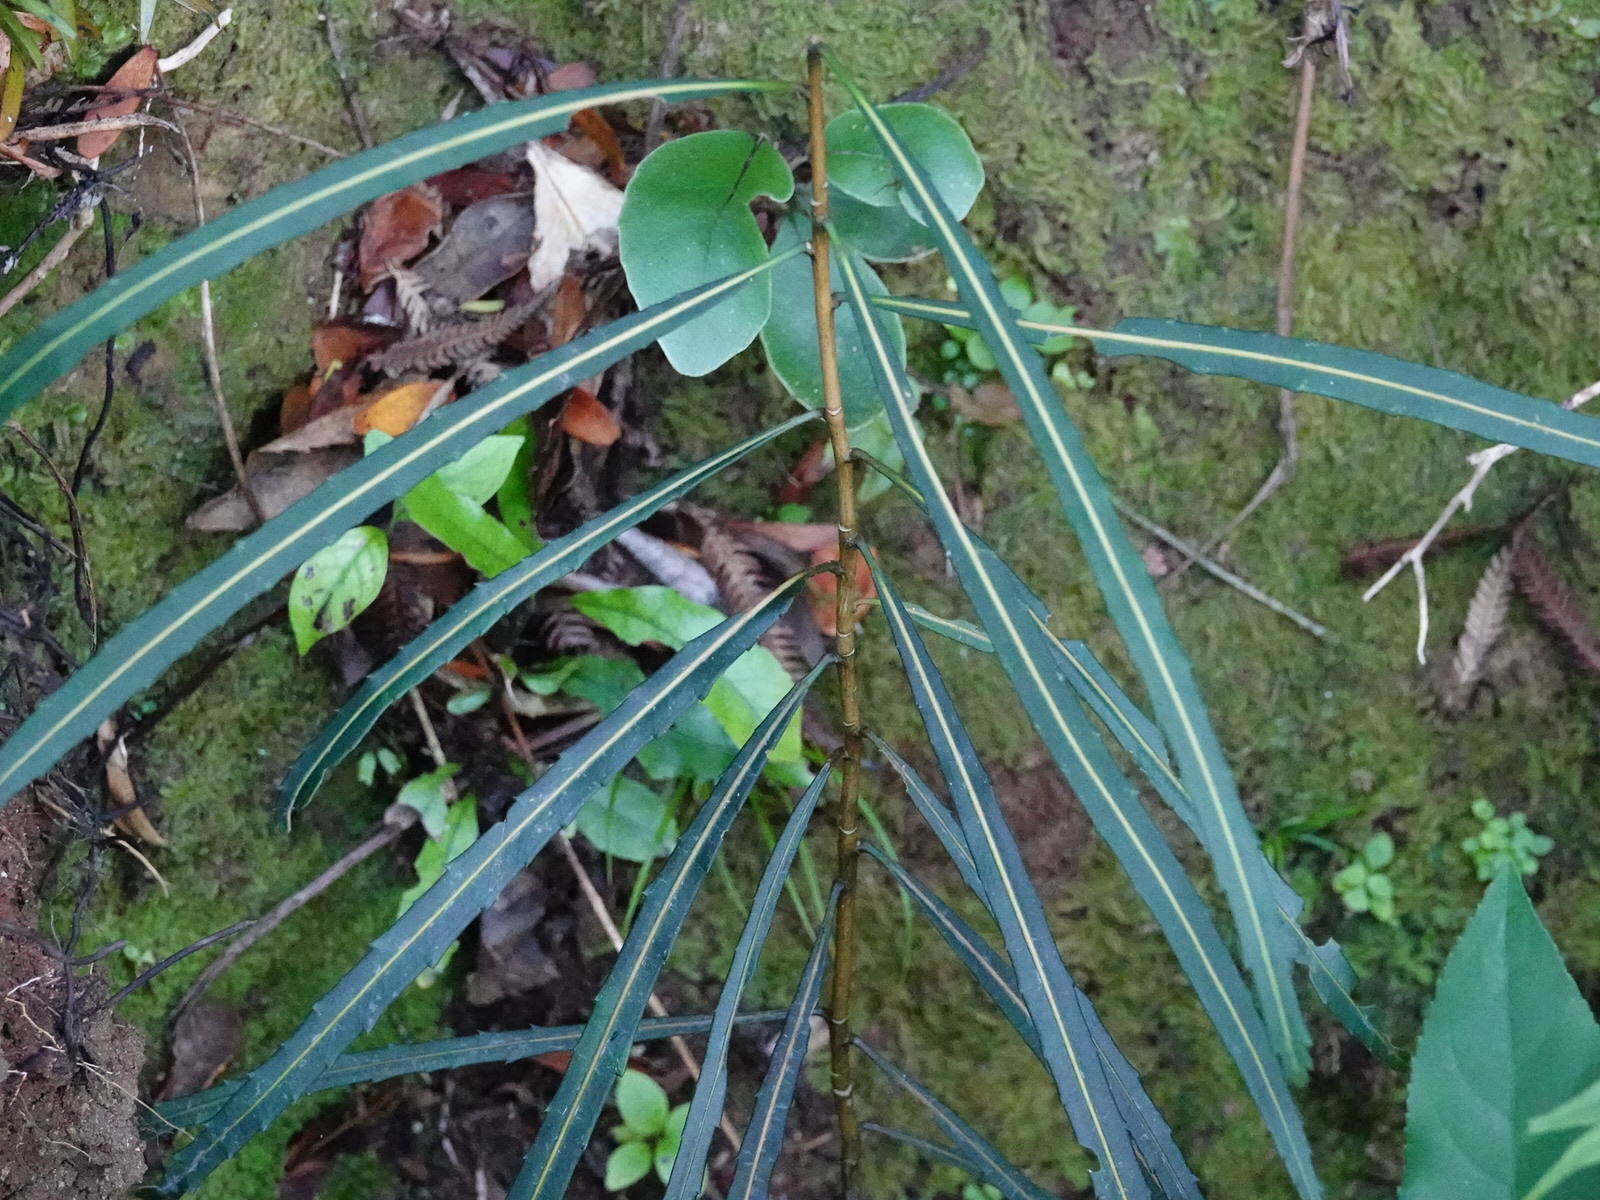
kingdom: Plantae
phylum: Tracheophyta
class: Magnoliopsida
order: Apiales
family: Araliaceae
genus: Pseudopanax
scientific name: Pseudopanax crassifolius
